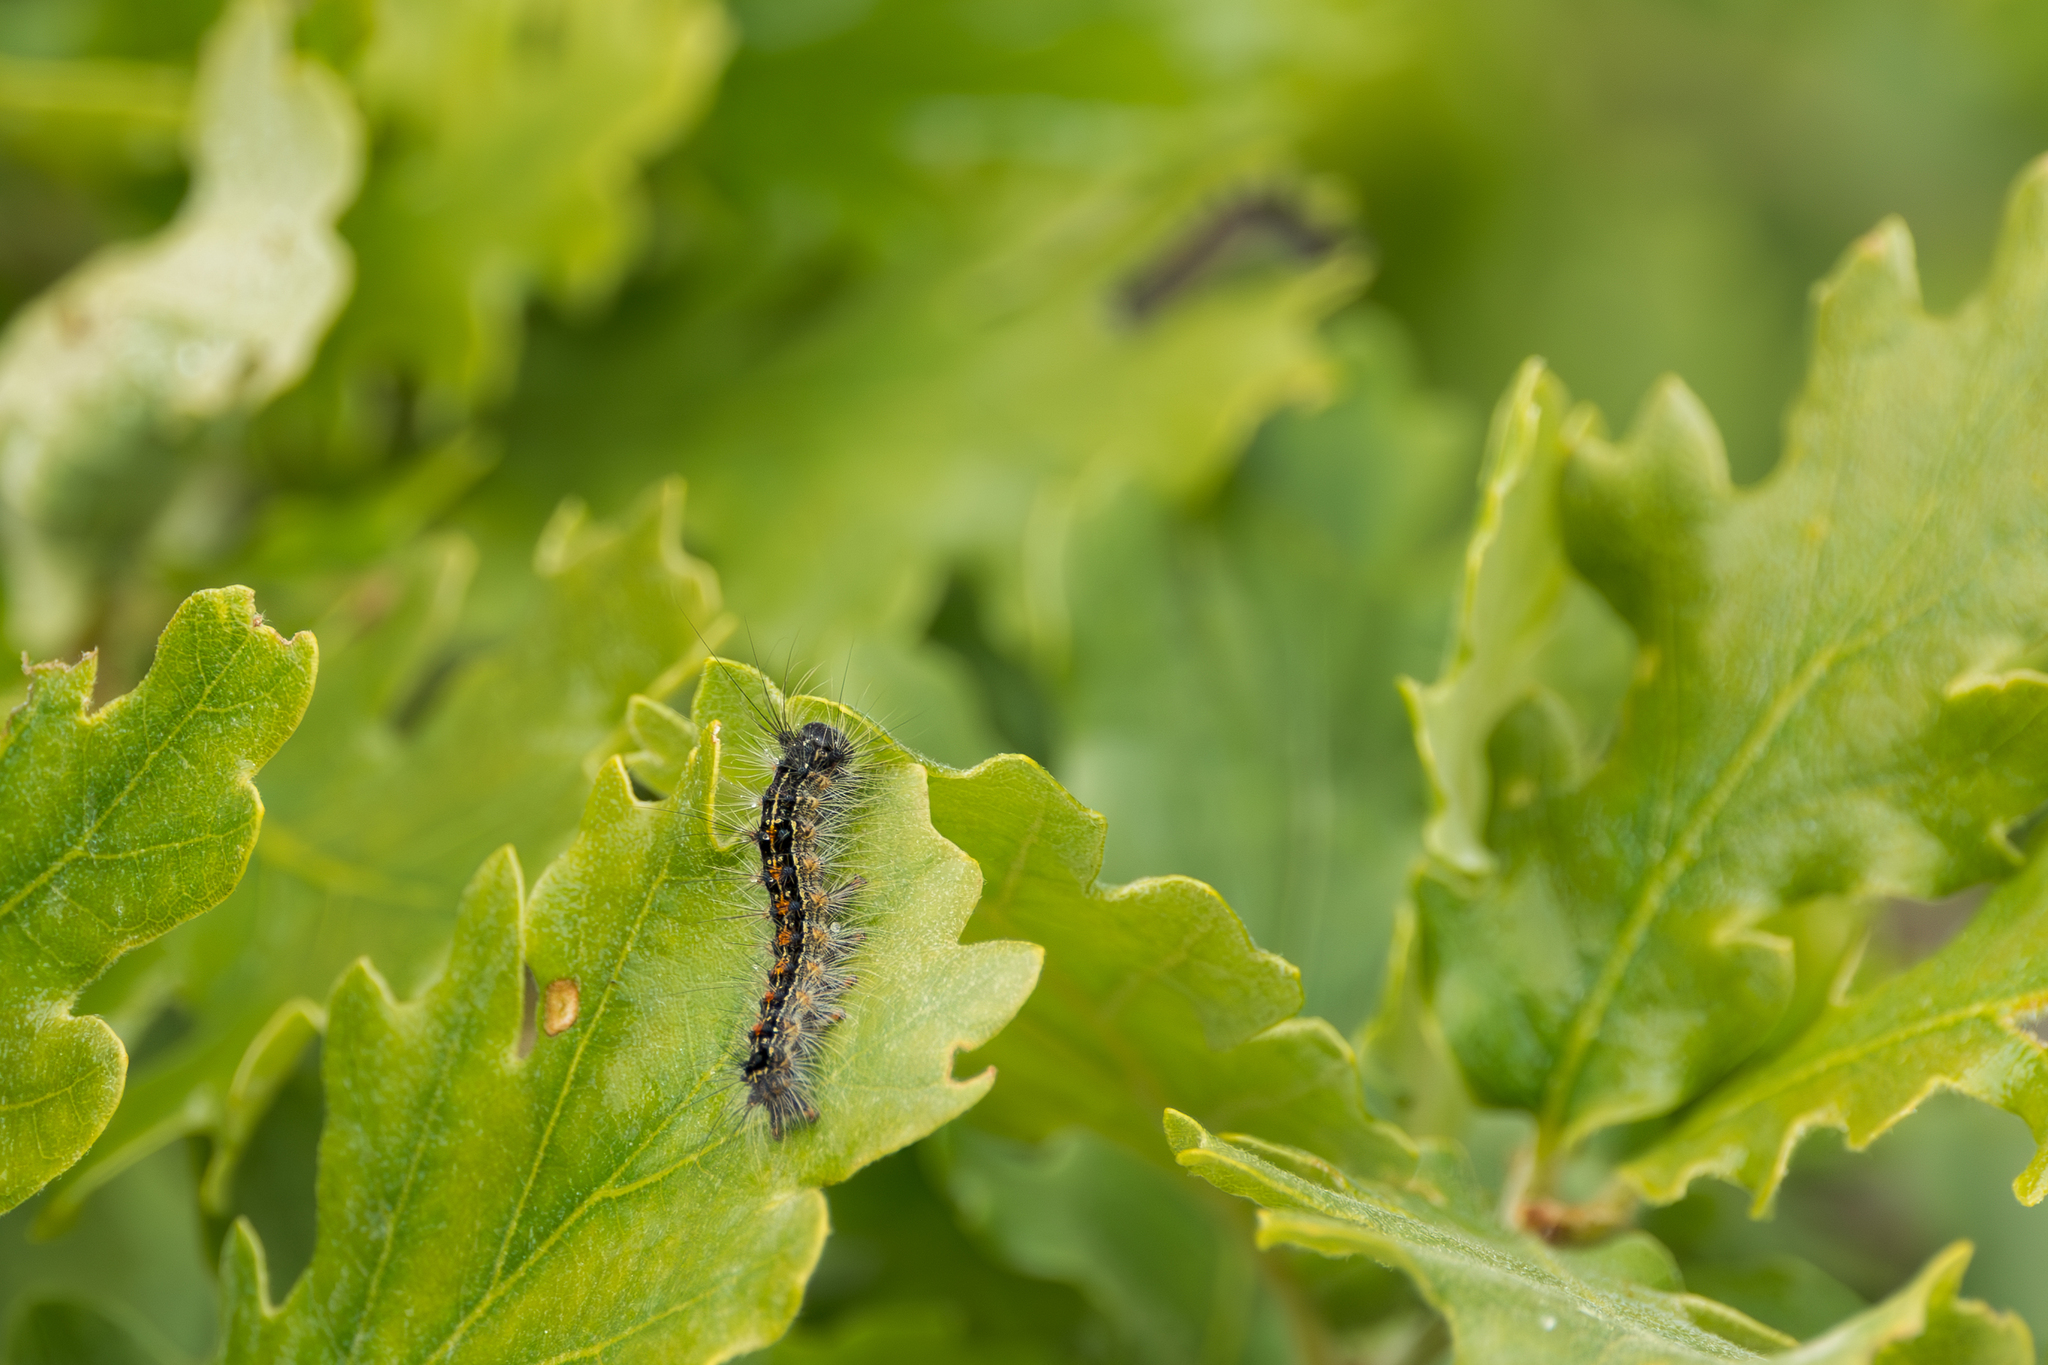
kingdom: Animalia
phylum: Arthropoda
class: Insecta
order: Lepidoptera
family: Erebidae
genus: Lymantria
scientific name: Lymantria dispar
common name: Gypsy moth
